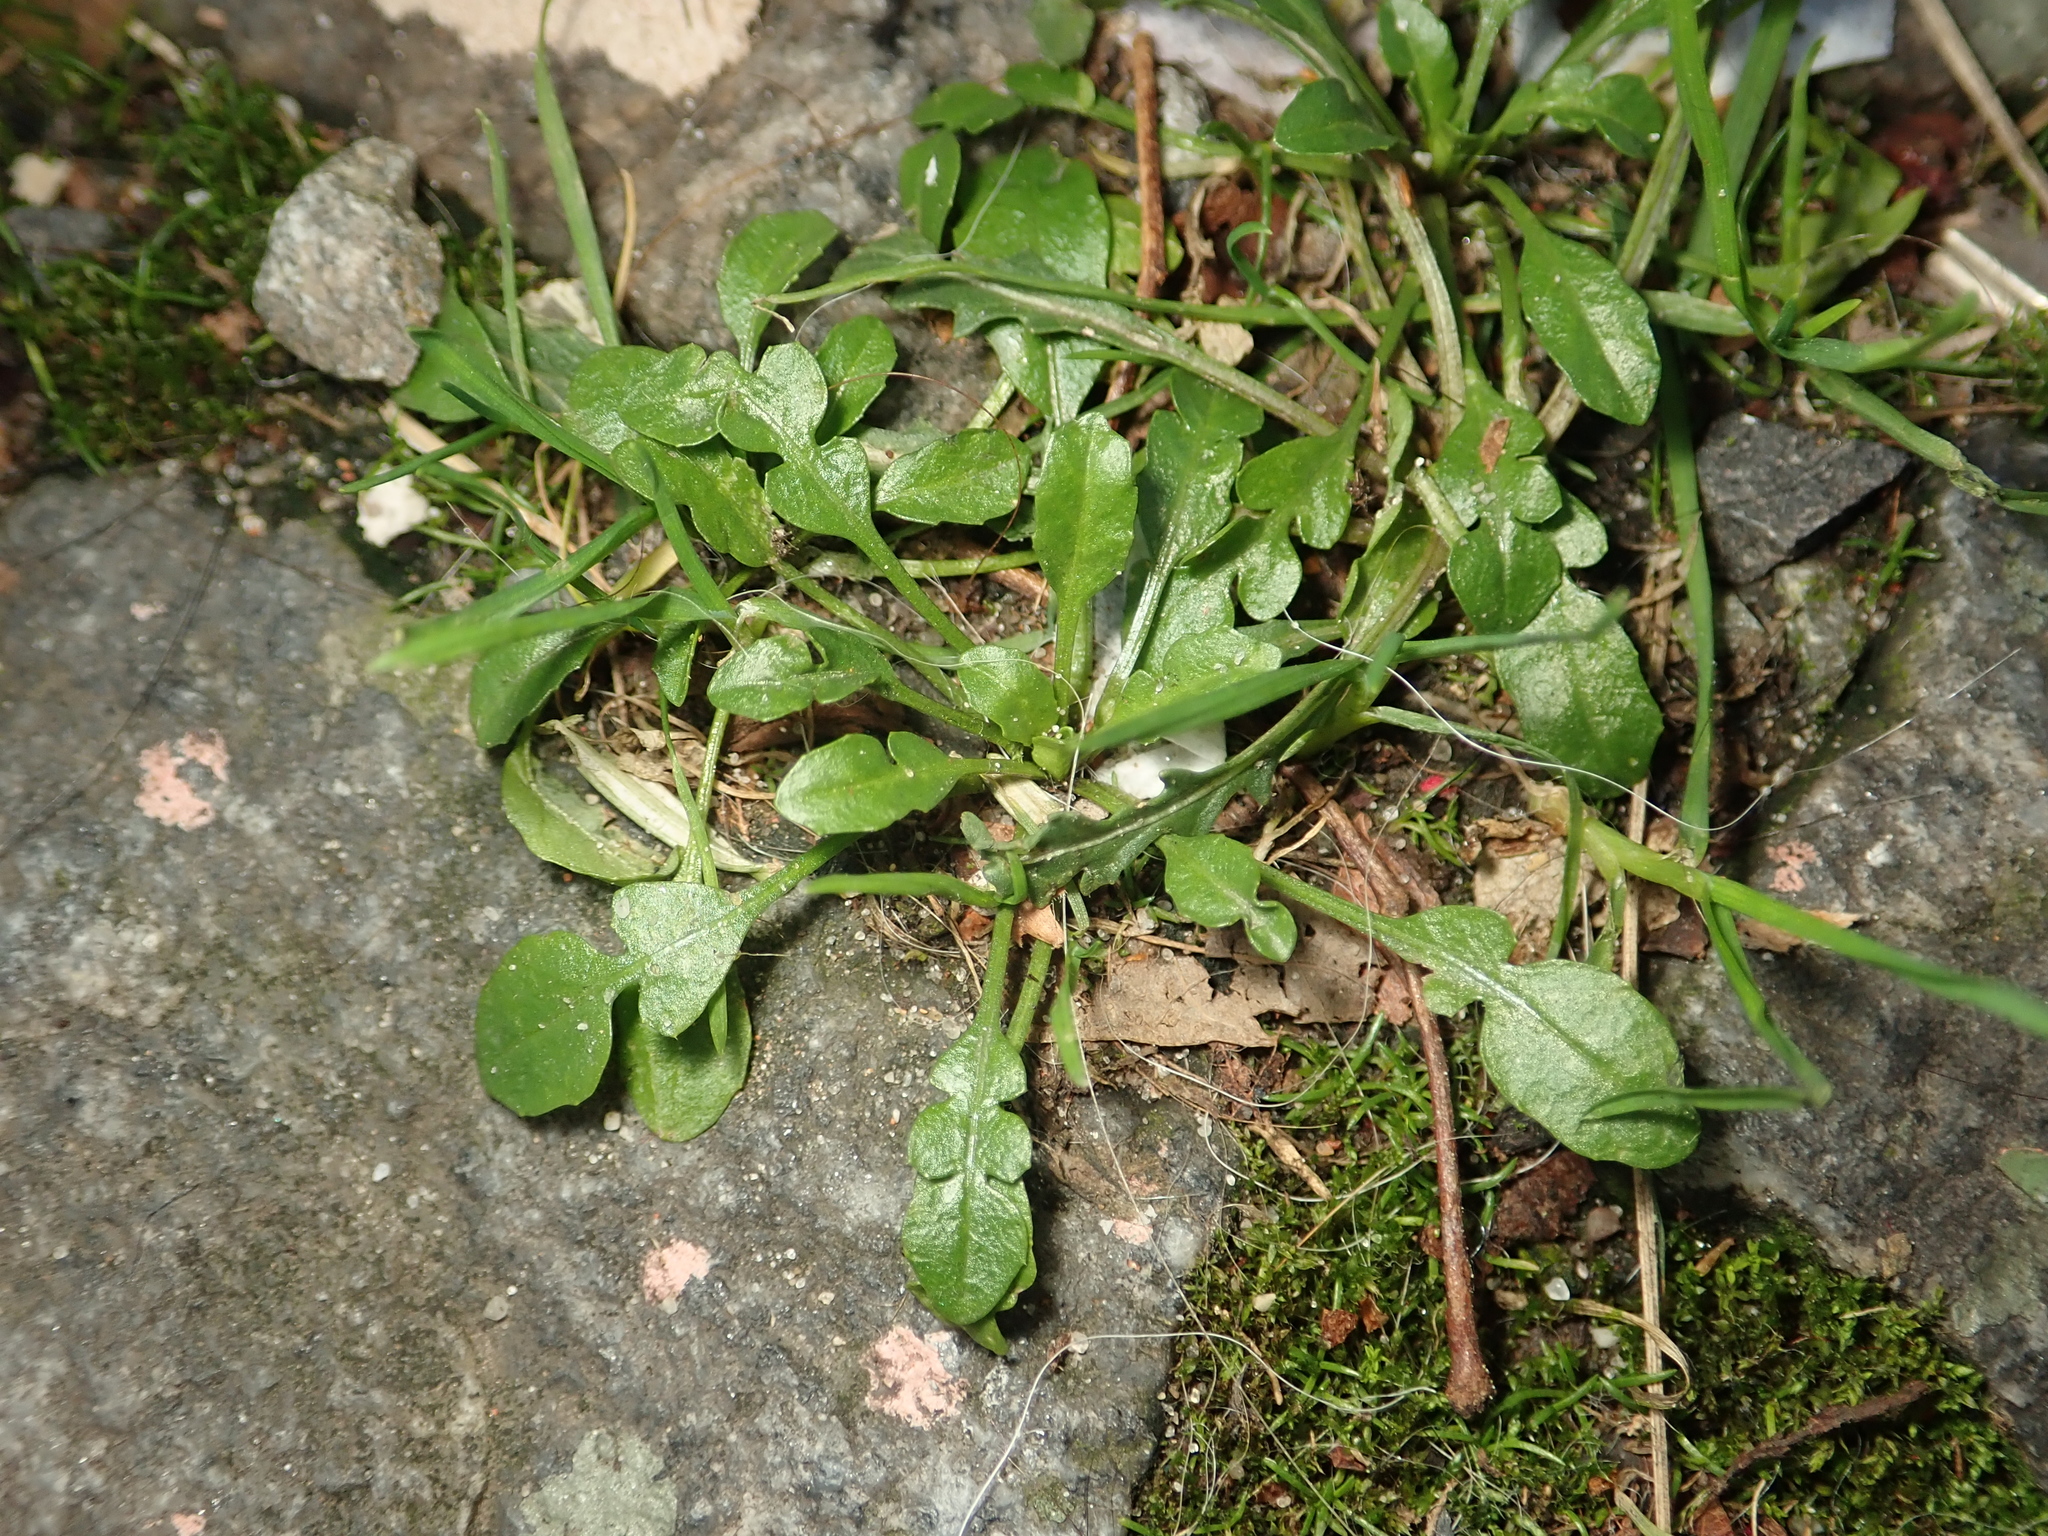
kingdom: Plantae
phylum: Tracheophyta
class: Magnoliopsida
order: Brassicales
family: Brassicaceae
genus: Capsella
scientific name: Capsella bursa-pastoris
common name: Shepherd's purse
